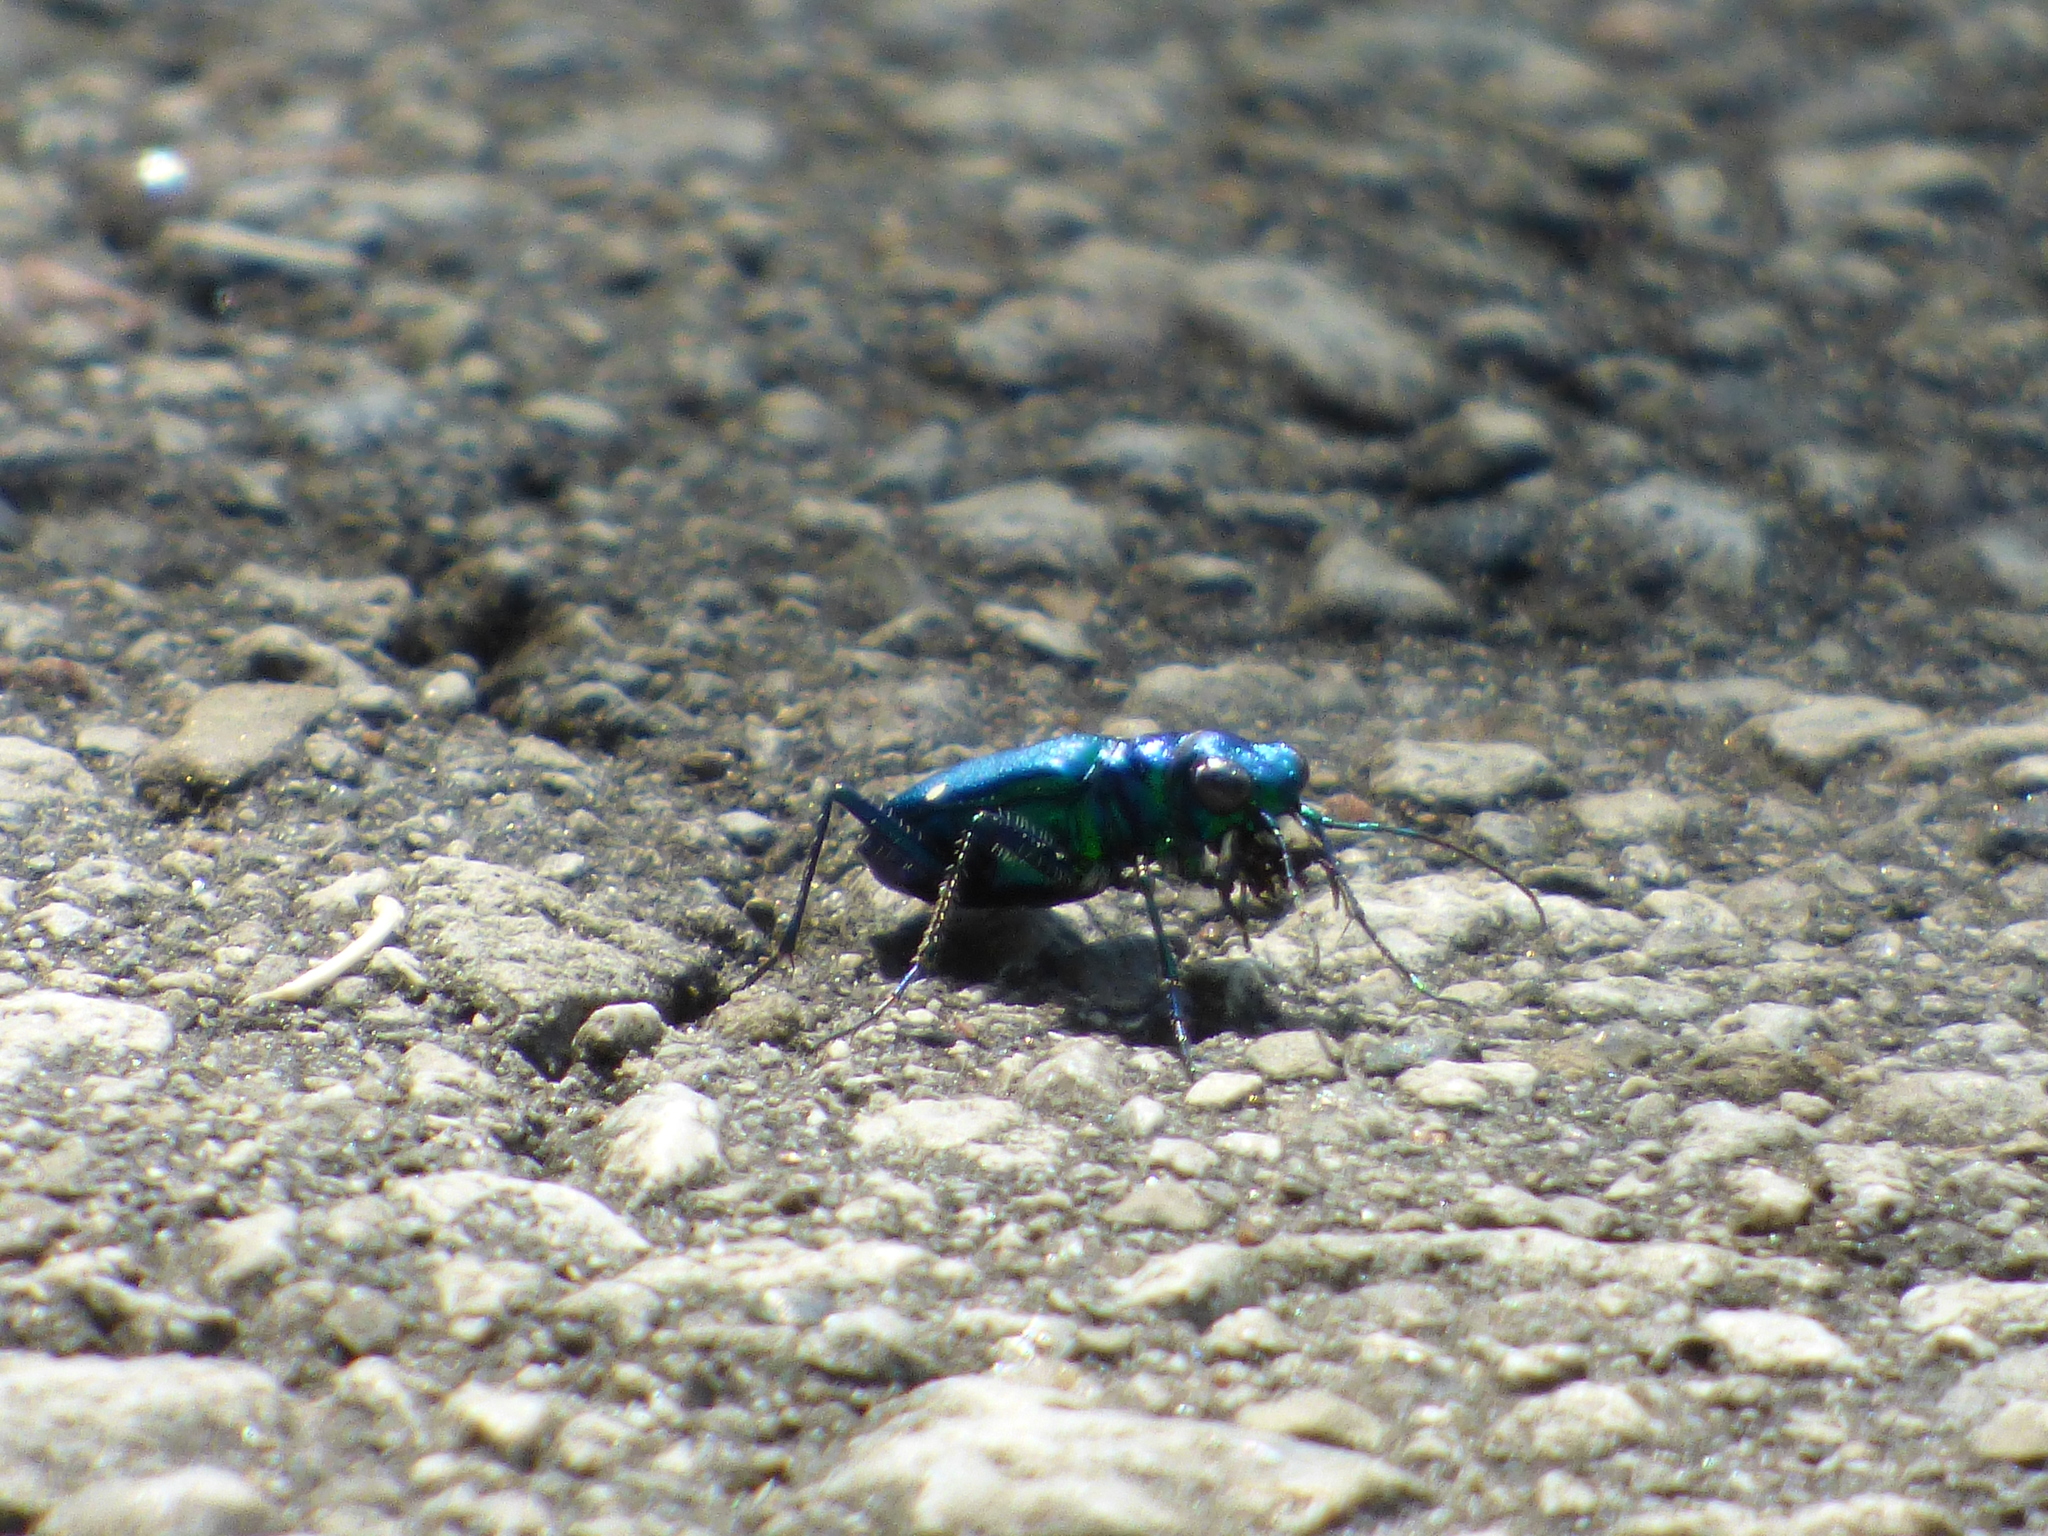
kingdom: Animalia
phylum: Arthropoda
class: Insecta
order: Coleoptera
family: Carabidae
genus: Cicindela
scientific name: Cicindela sexguttata
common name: Six-spotted tiger beetle
